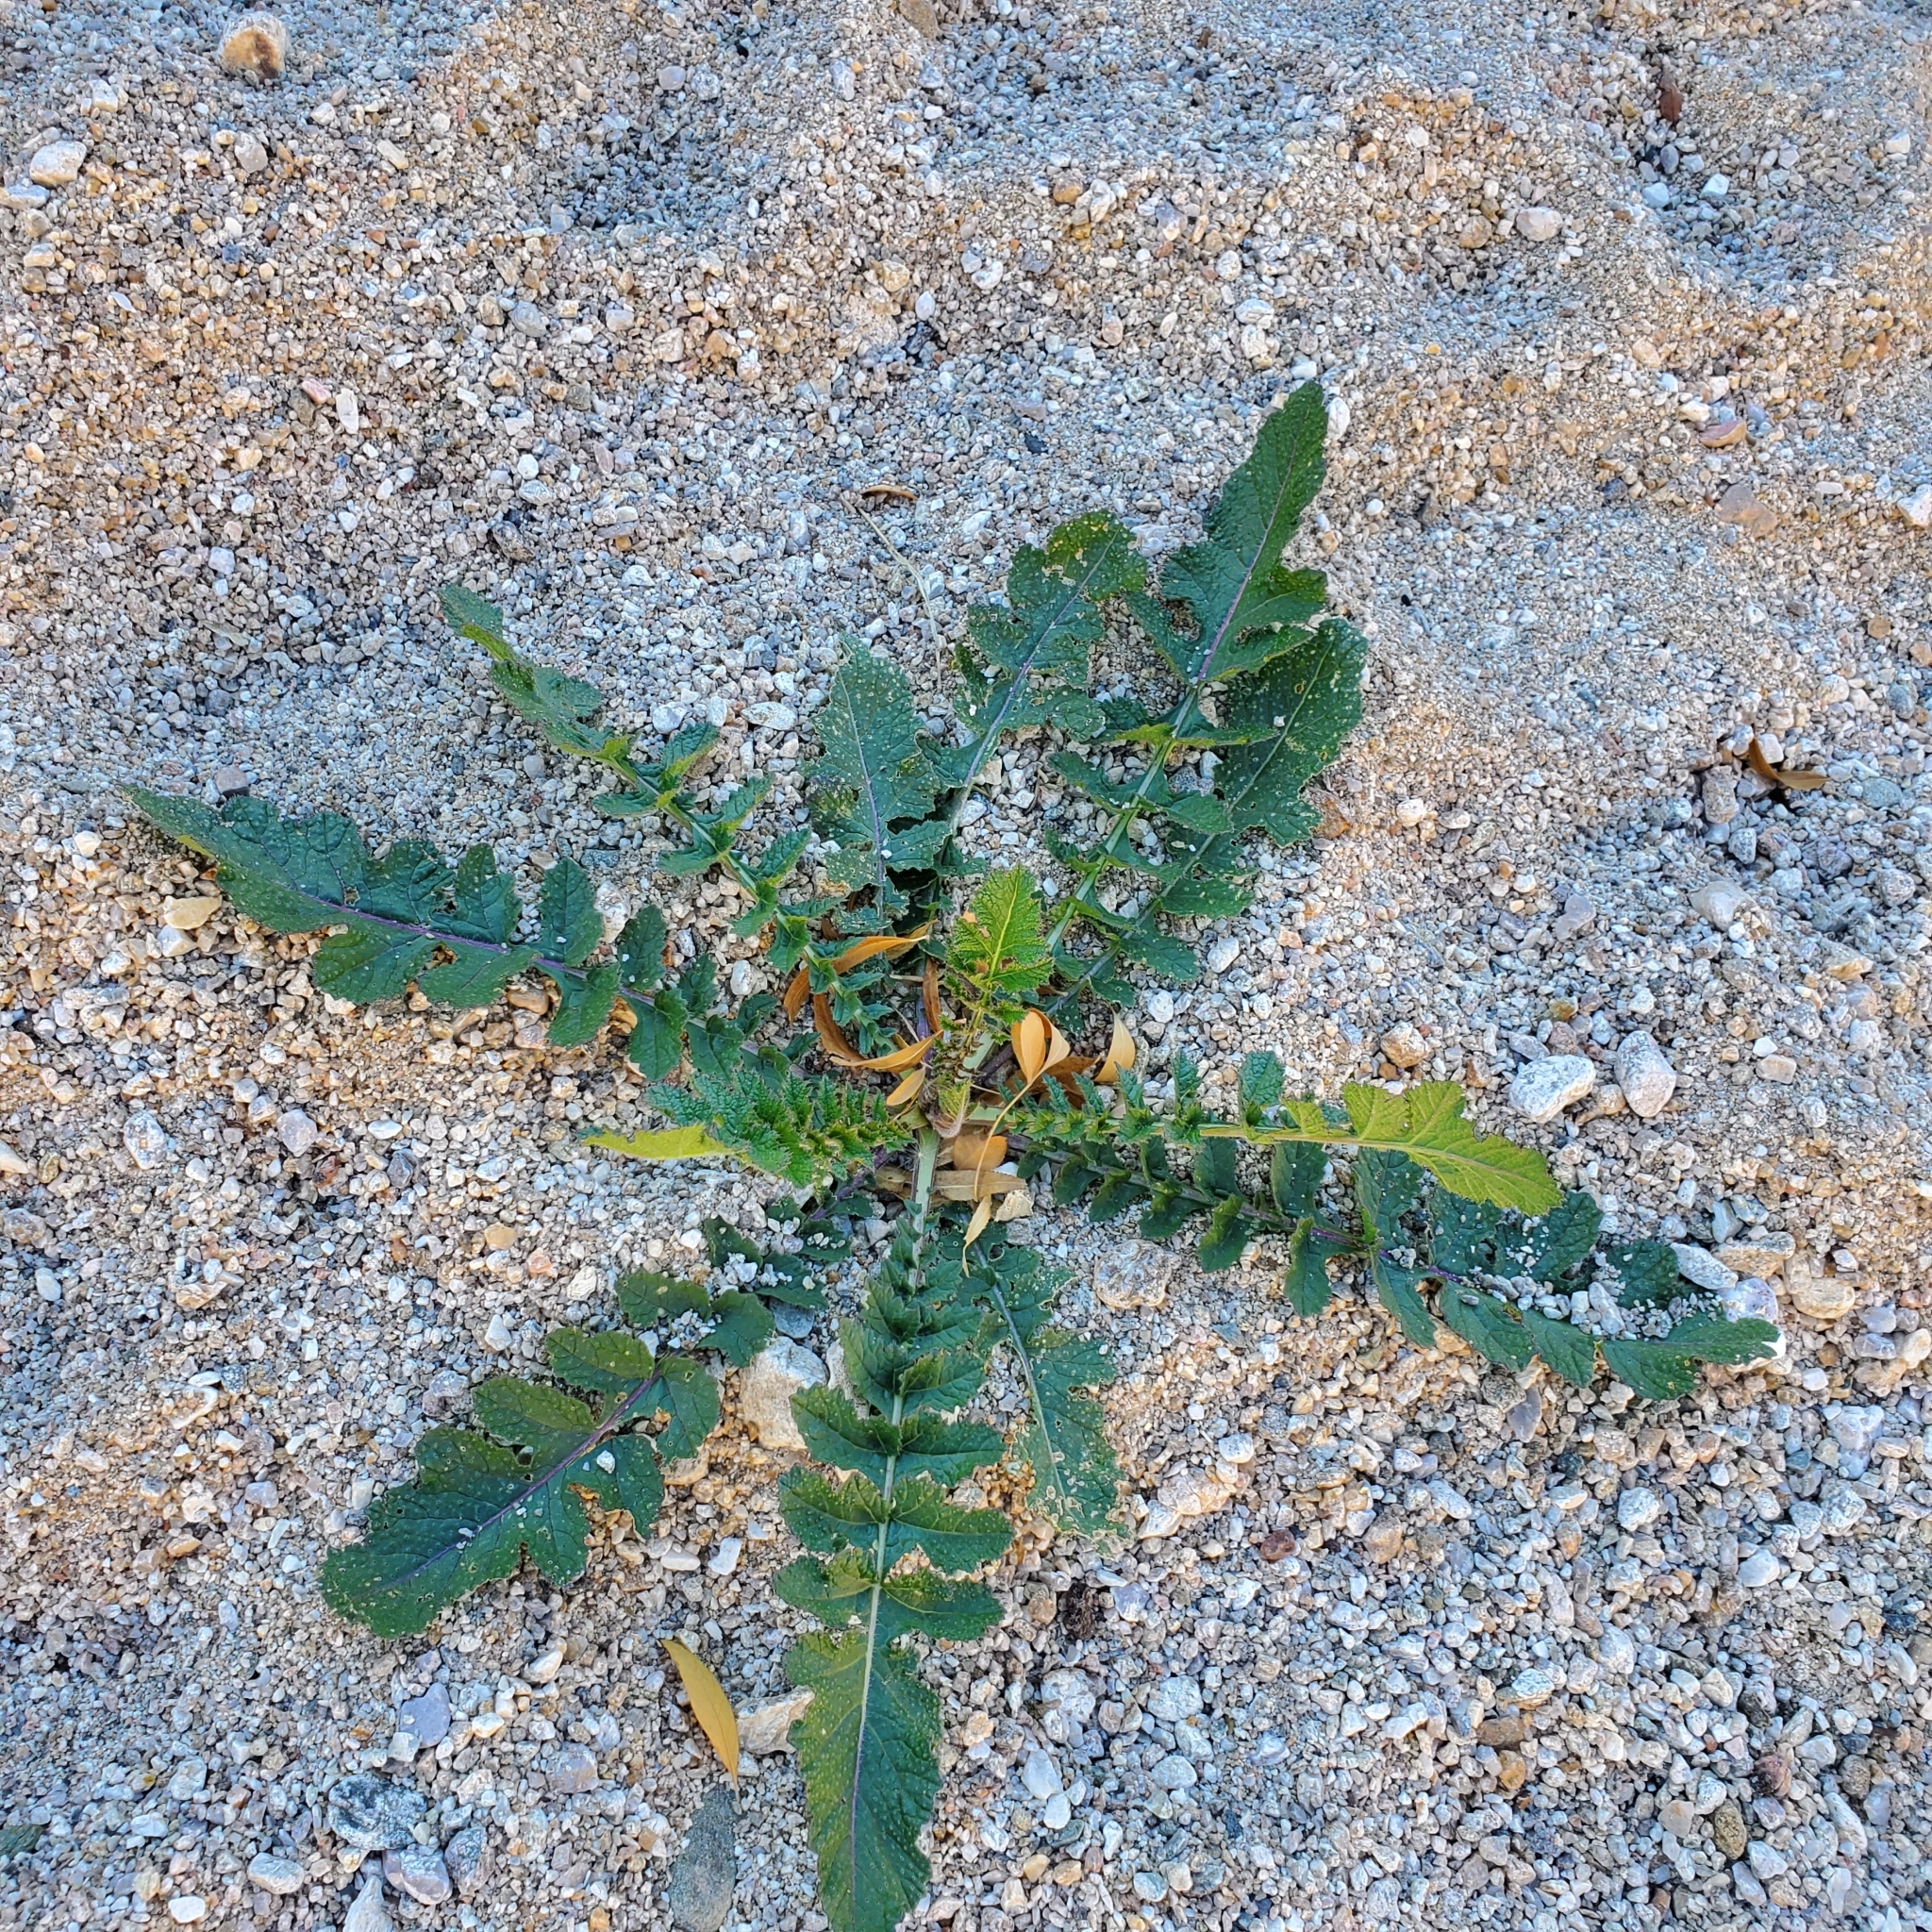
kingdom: Plantae
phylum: Tracheophyta
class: Magnoliopsida
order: Brassicales
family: Brassicaceae
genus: Brassica
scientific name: Brassica tournefortii
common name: Pale cabbage
